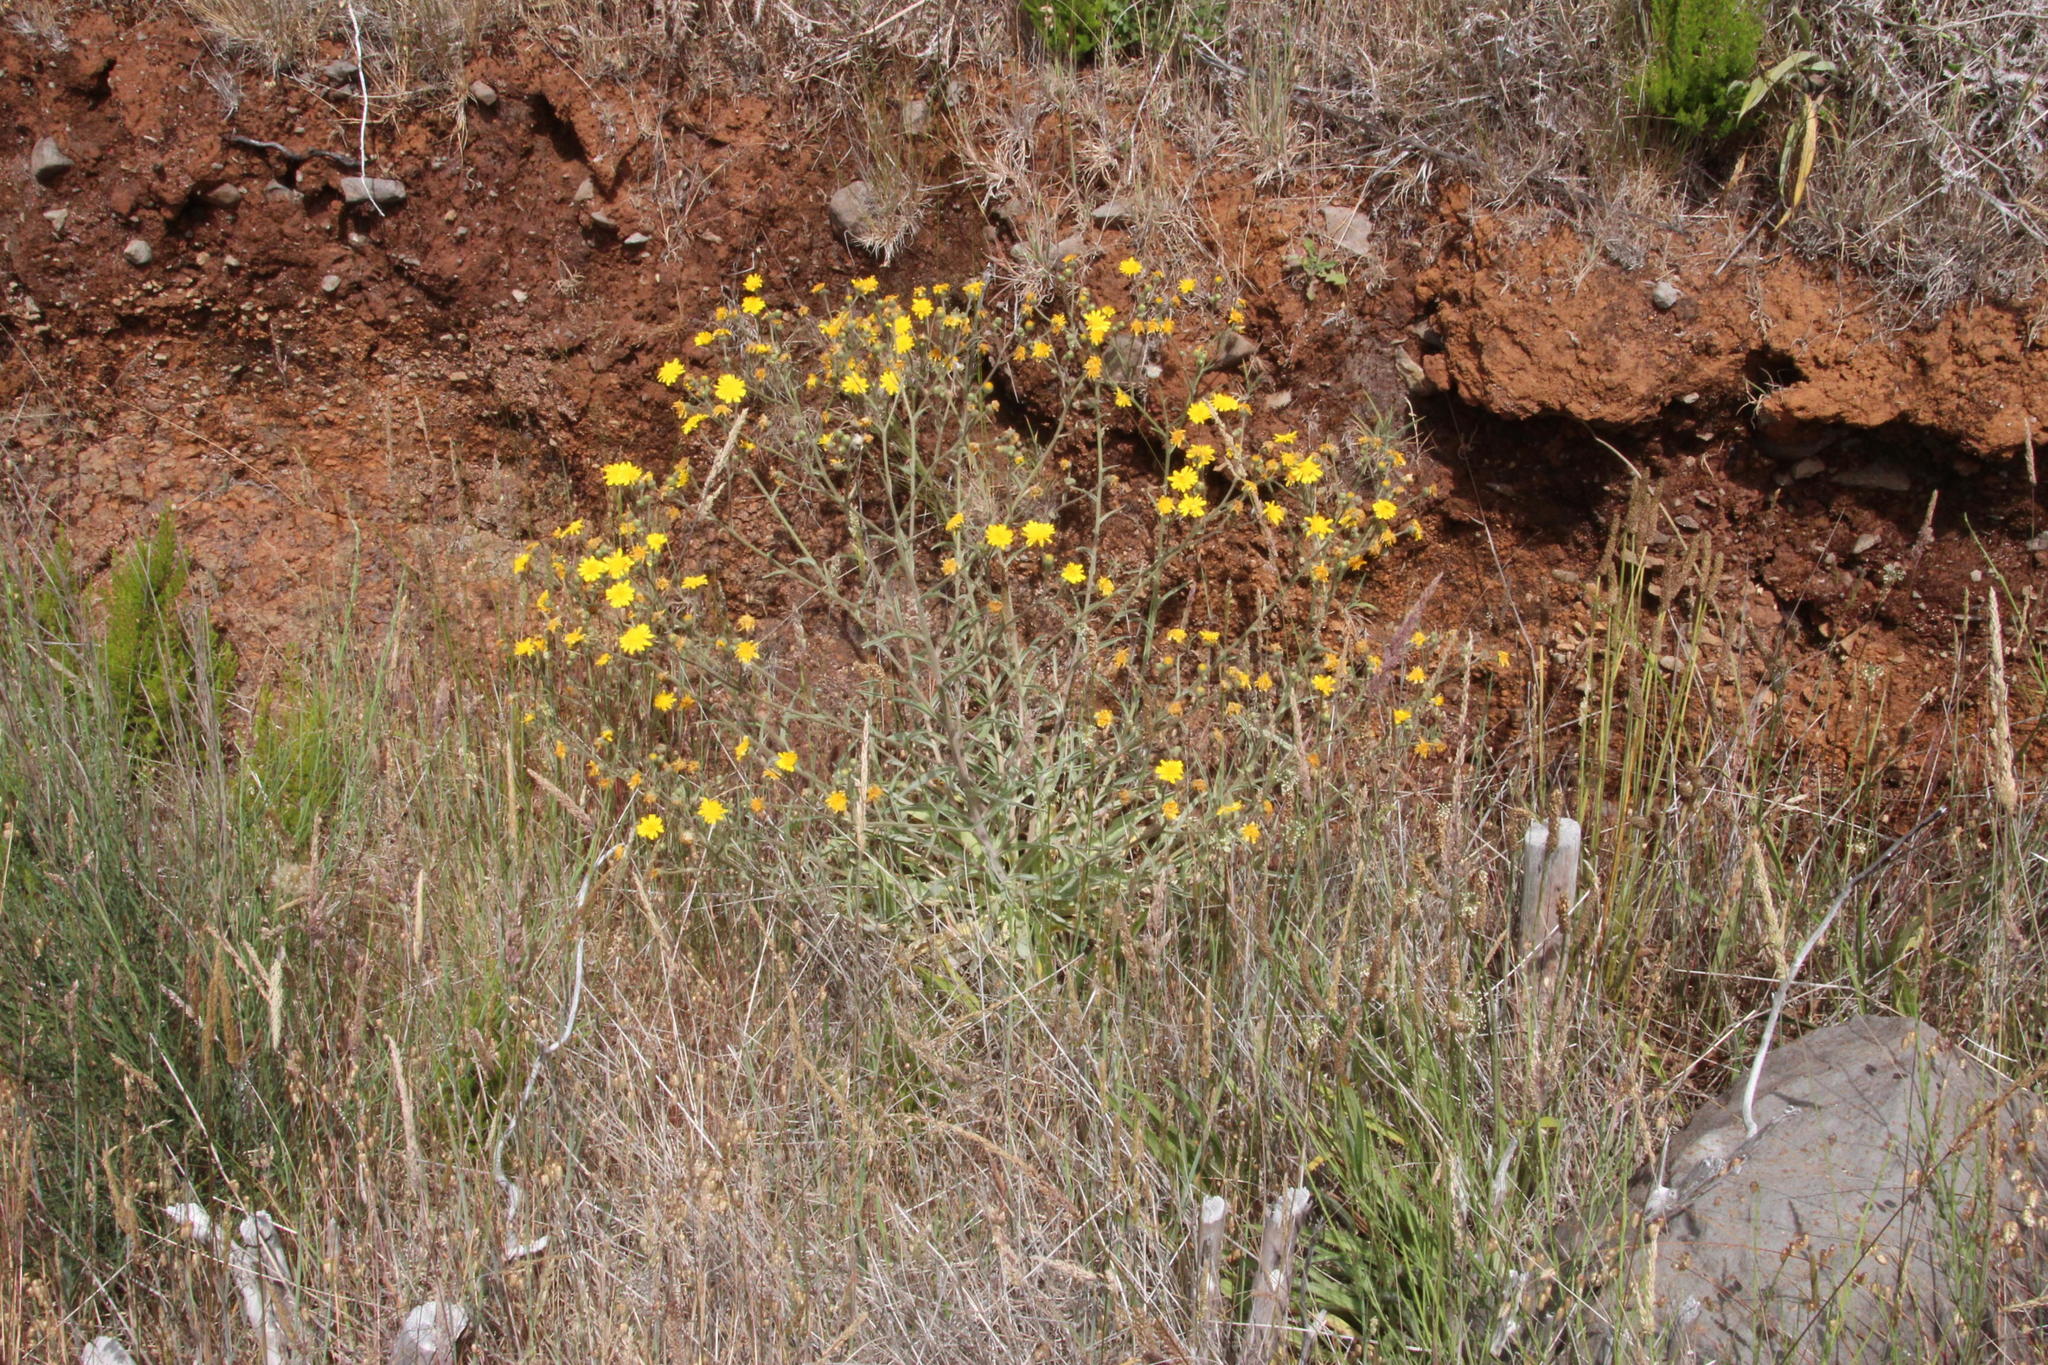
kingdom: Plantae
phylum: Tracheophyta
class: Magnoliopsida
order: Asterales
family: Asteraceae
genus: Andryala
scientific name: Andryala glandulosa
